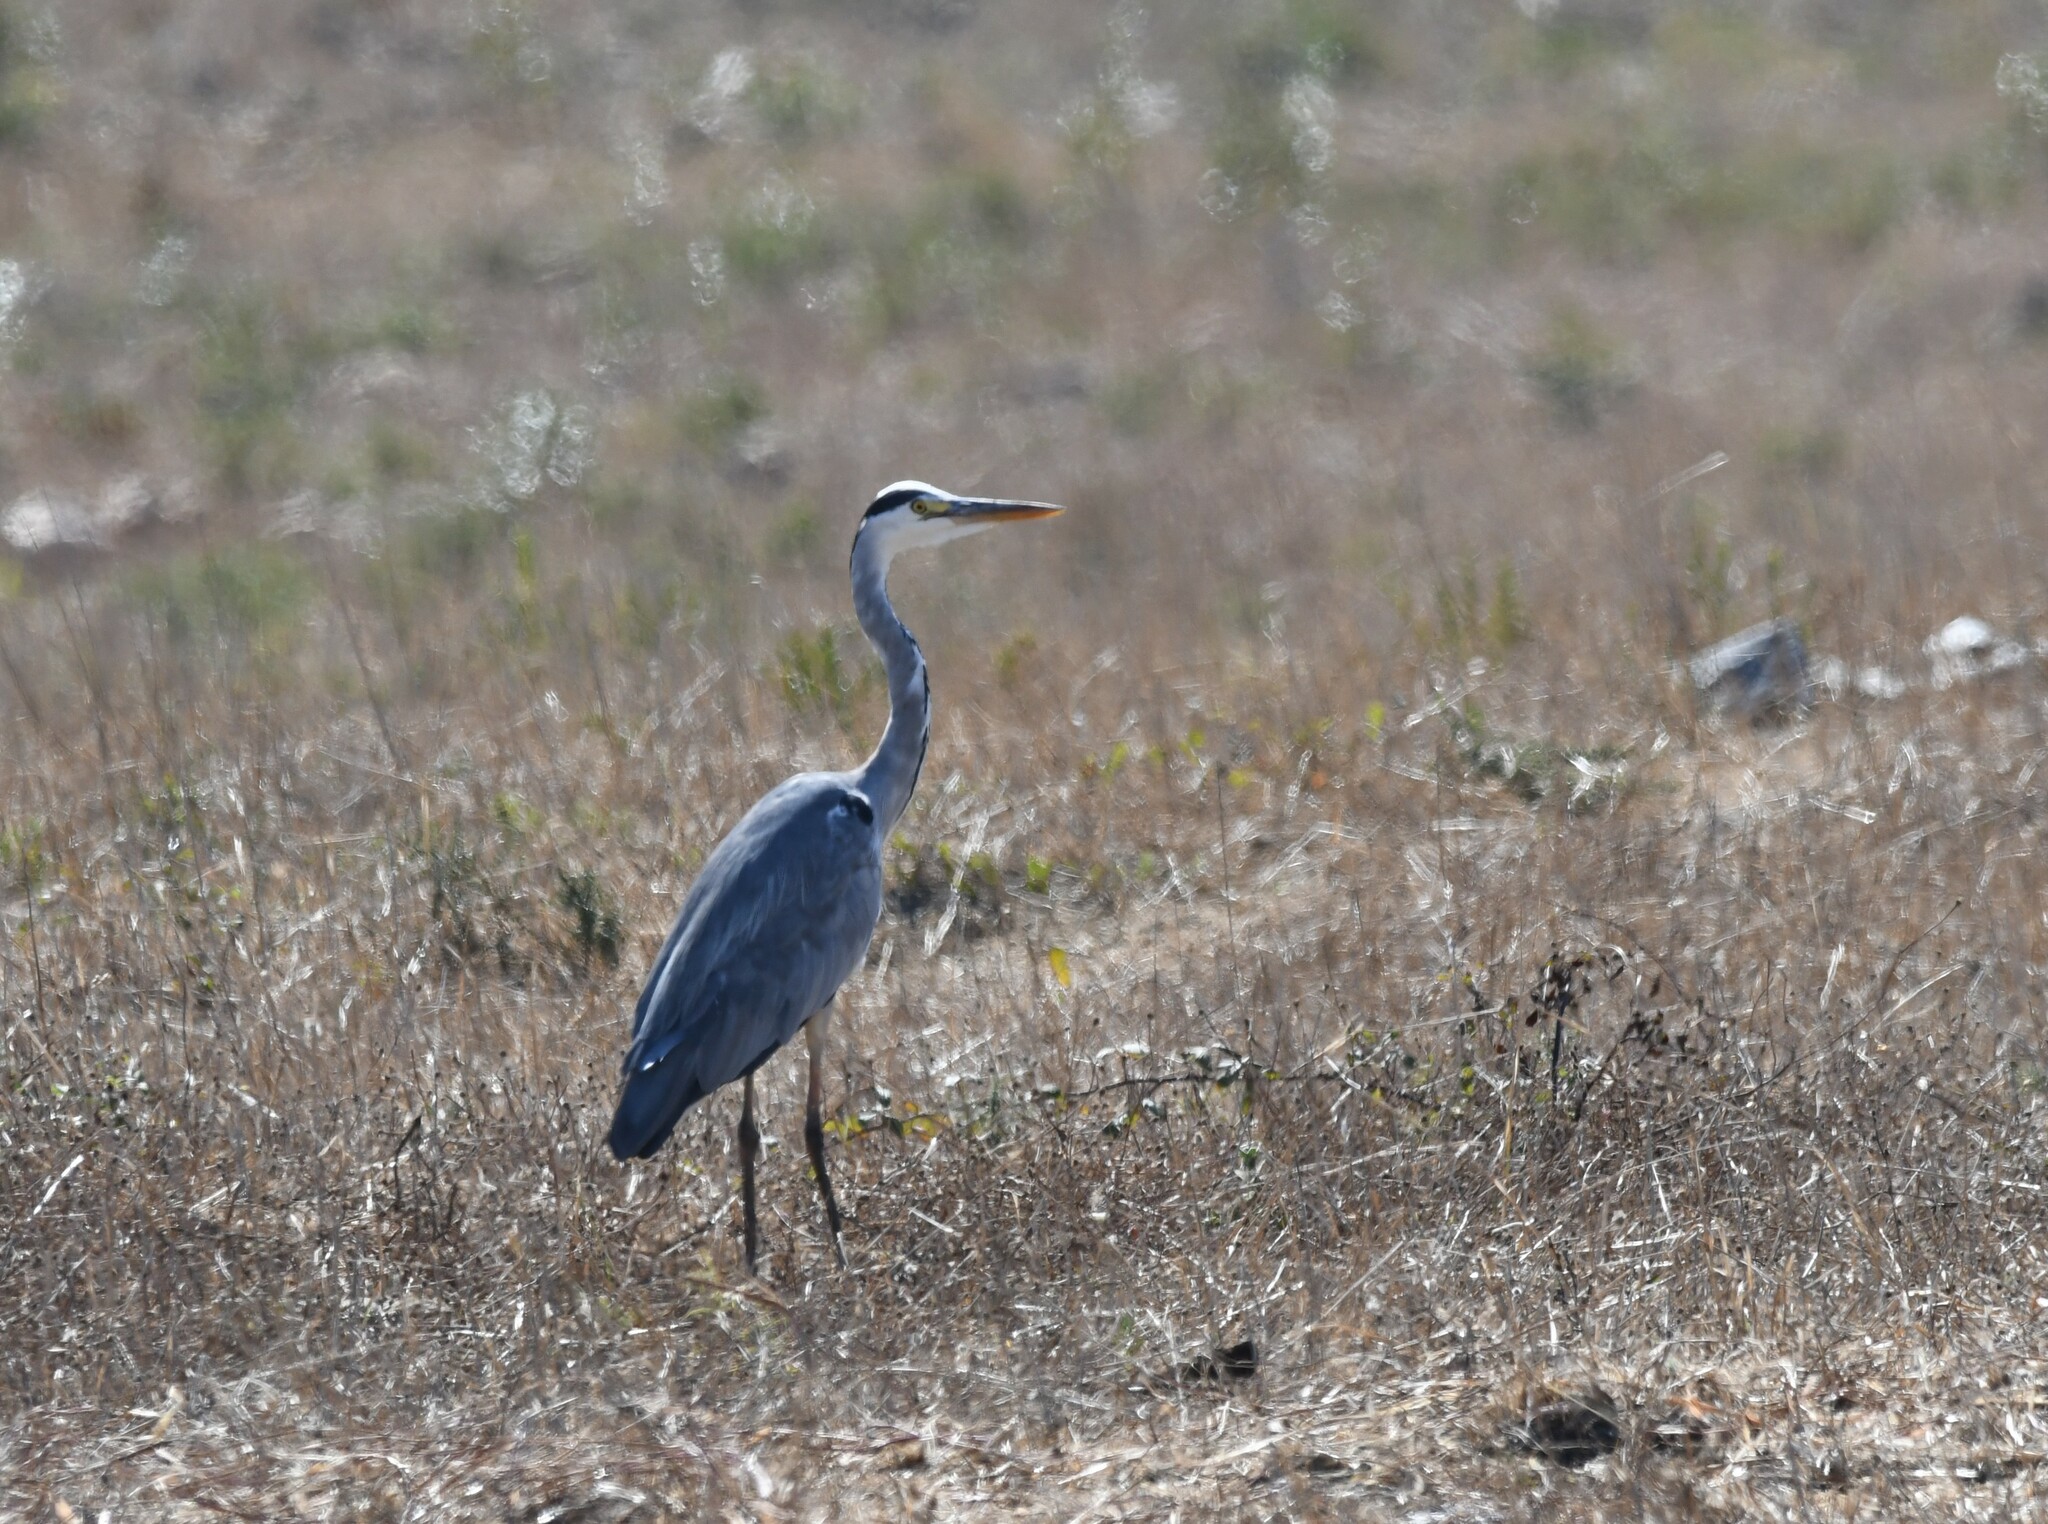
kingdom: Animalia
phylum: Chordata
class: Aves
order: Pelecaniformes
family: Ardeidae
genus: Ardea
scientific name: Ardea cinerea
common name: Grey heron
